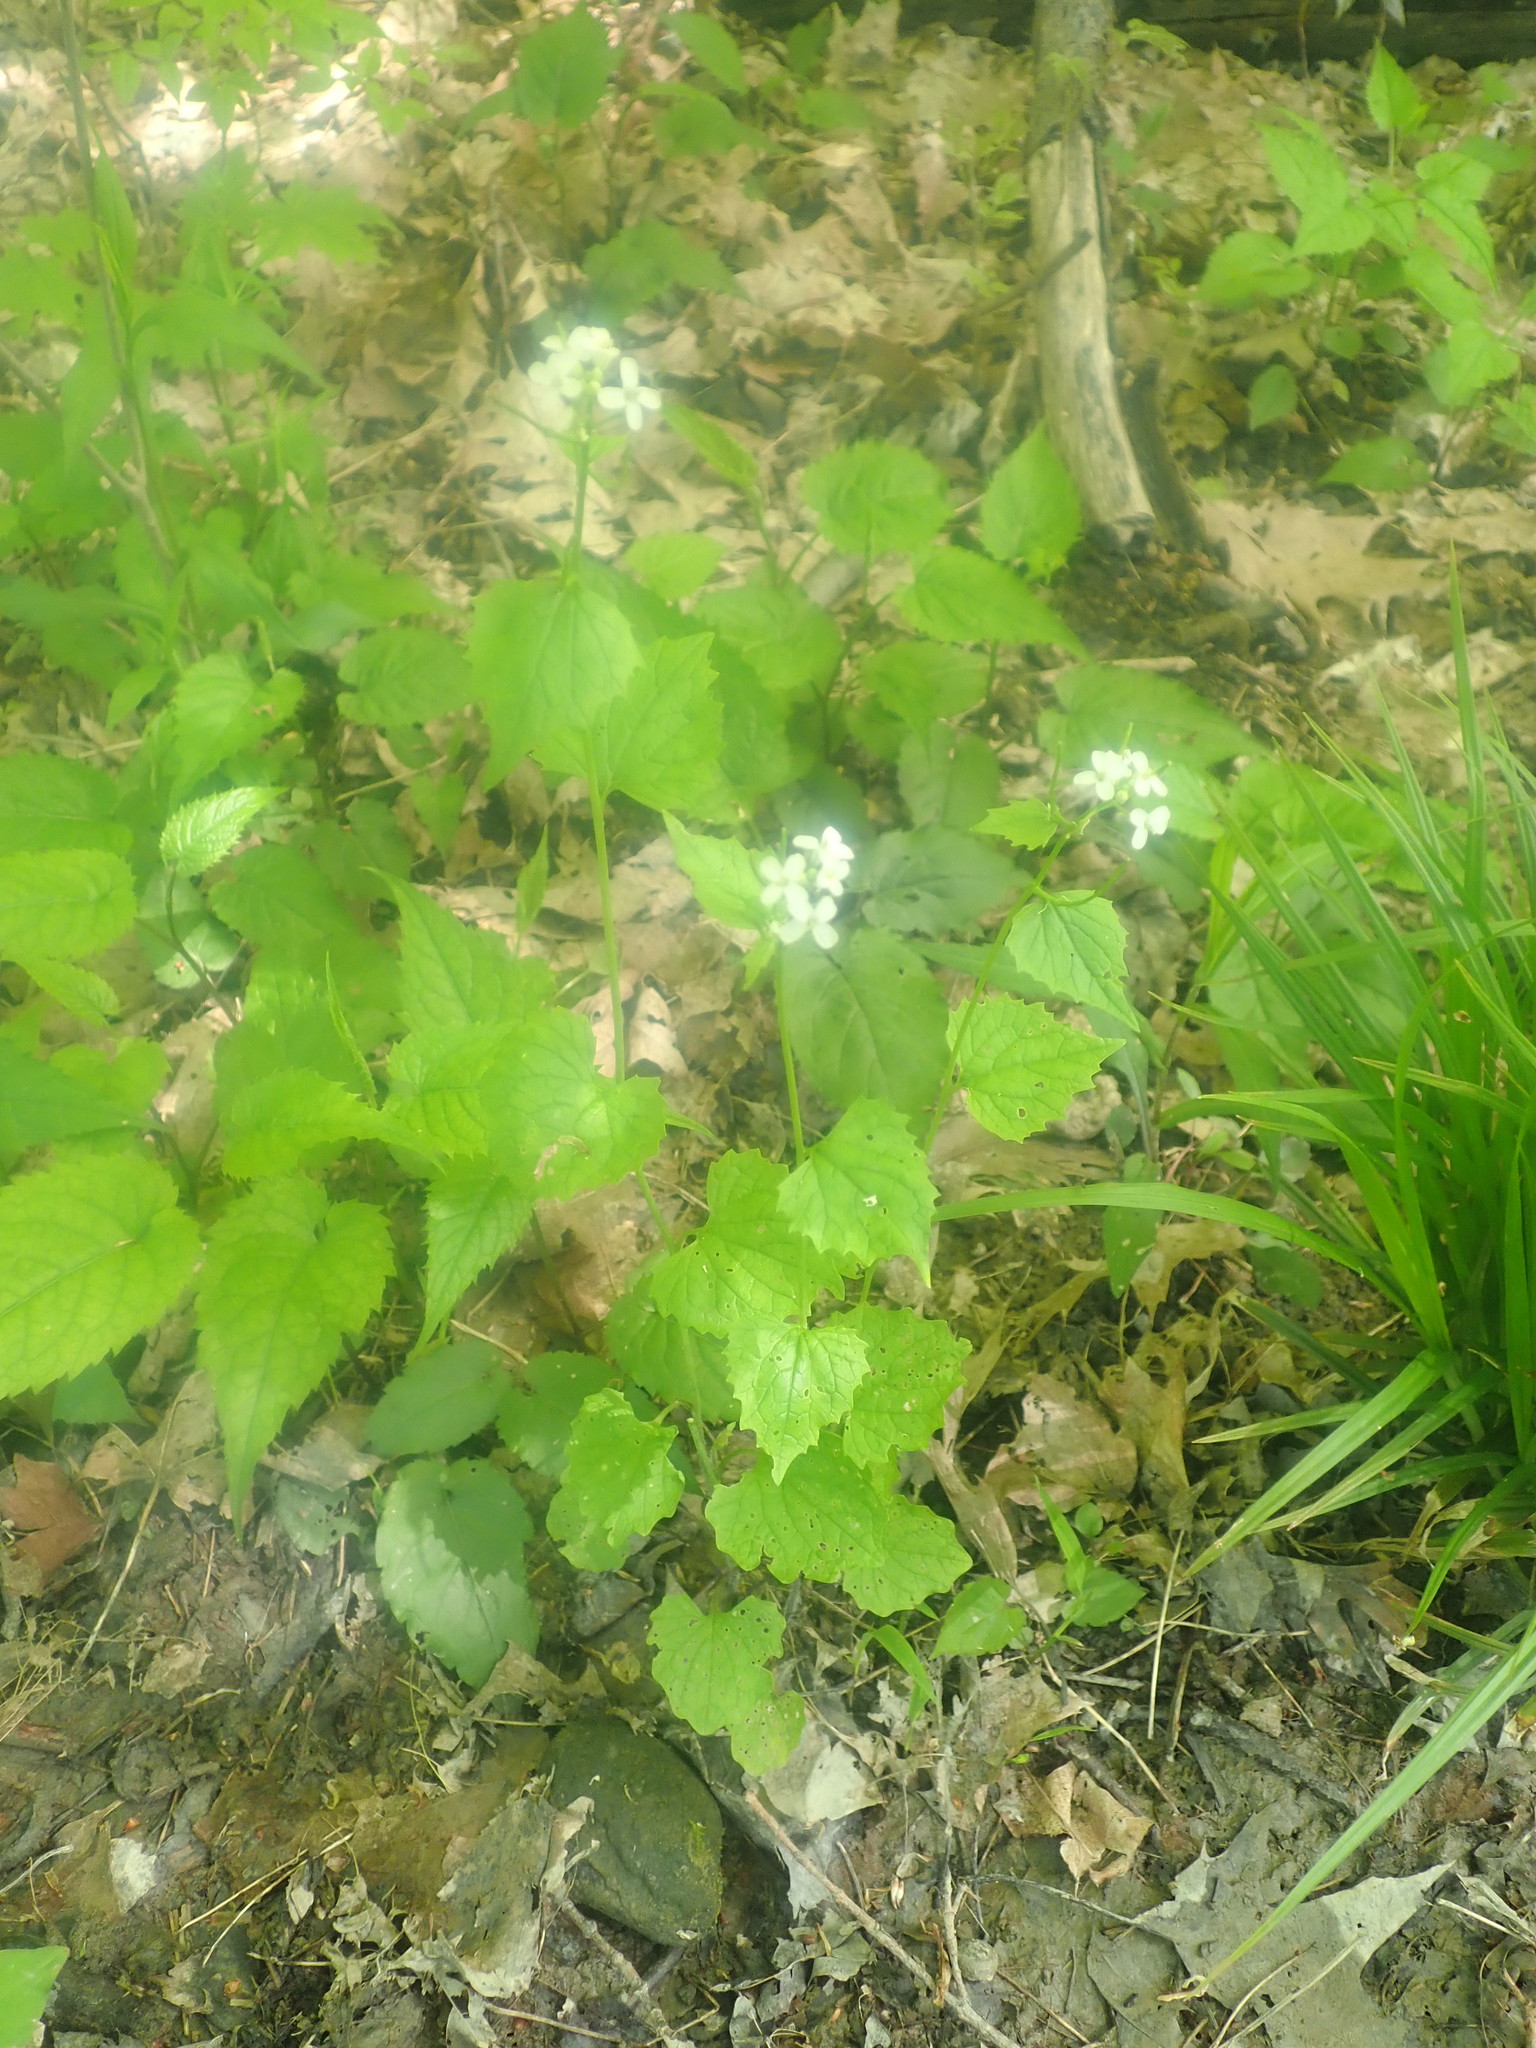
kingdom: Plantae
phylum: Tracheophyta
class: Magnoliopsida
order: Brassicales
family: Brassicaceae
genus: Alliaria
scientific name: Alliaria petiolata
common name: Garlic mustard
